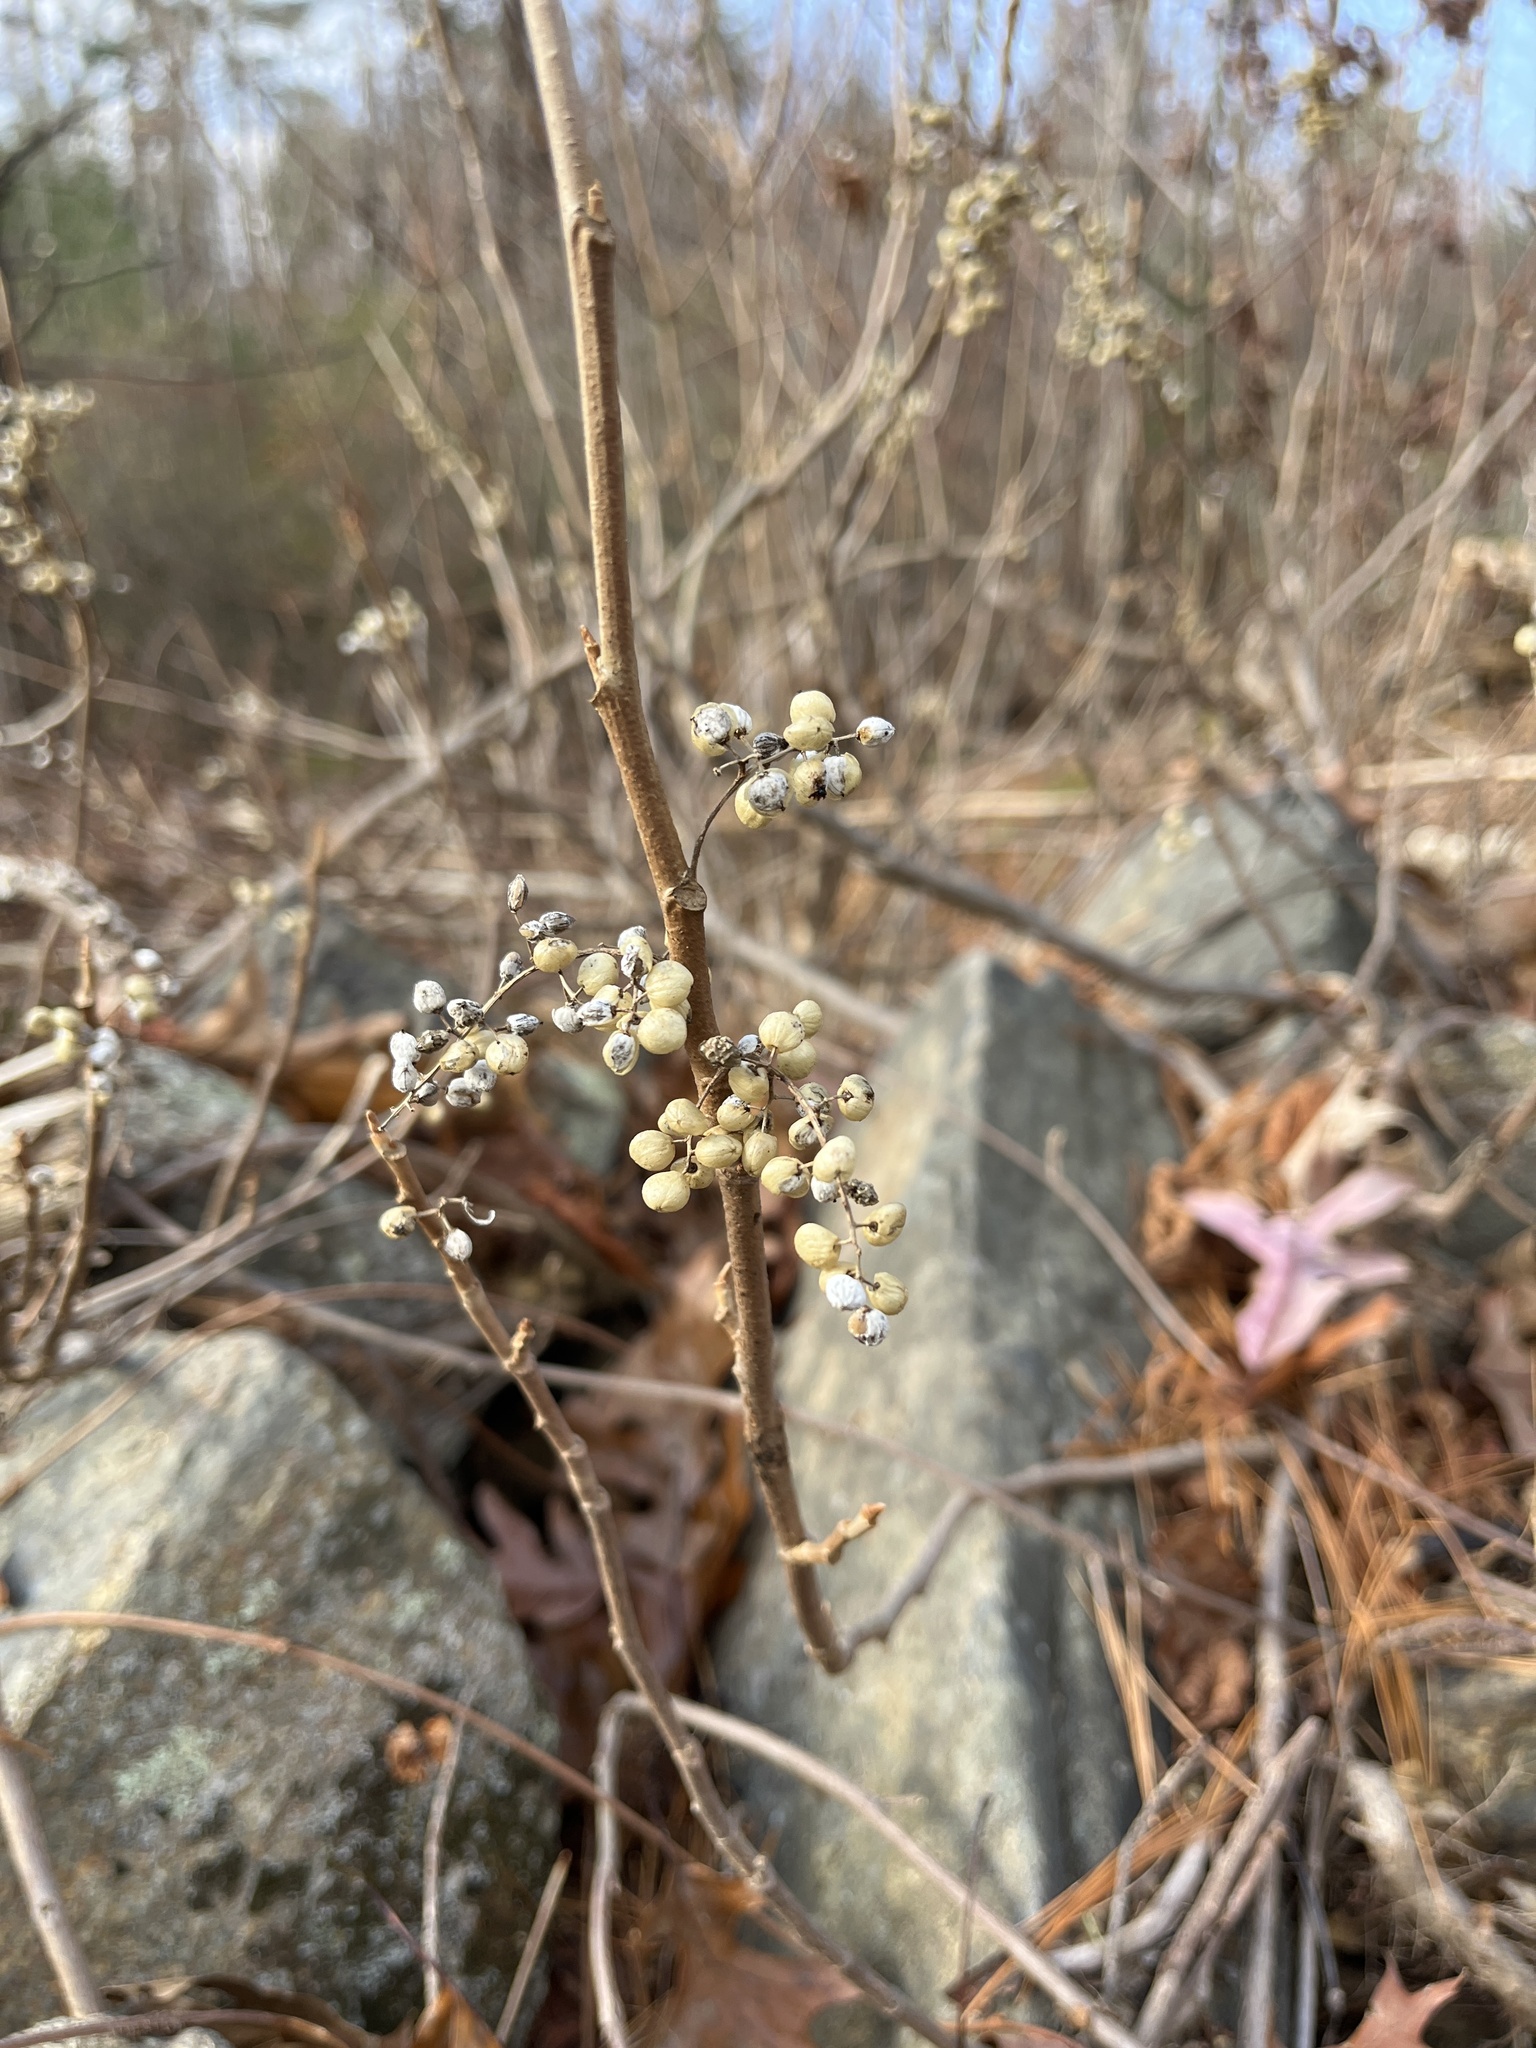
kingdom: Plantae
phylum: Tracheophyta
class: Magnoliopsida
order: Sapindales
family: Anacardiaceae
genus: Toxicodendron
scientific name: Toxicodendron radicans
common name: Poison ivy
